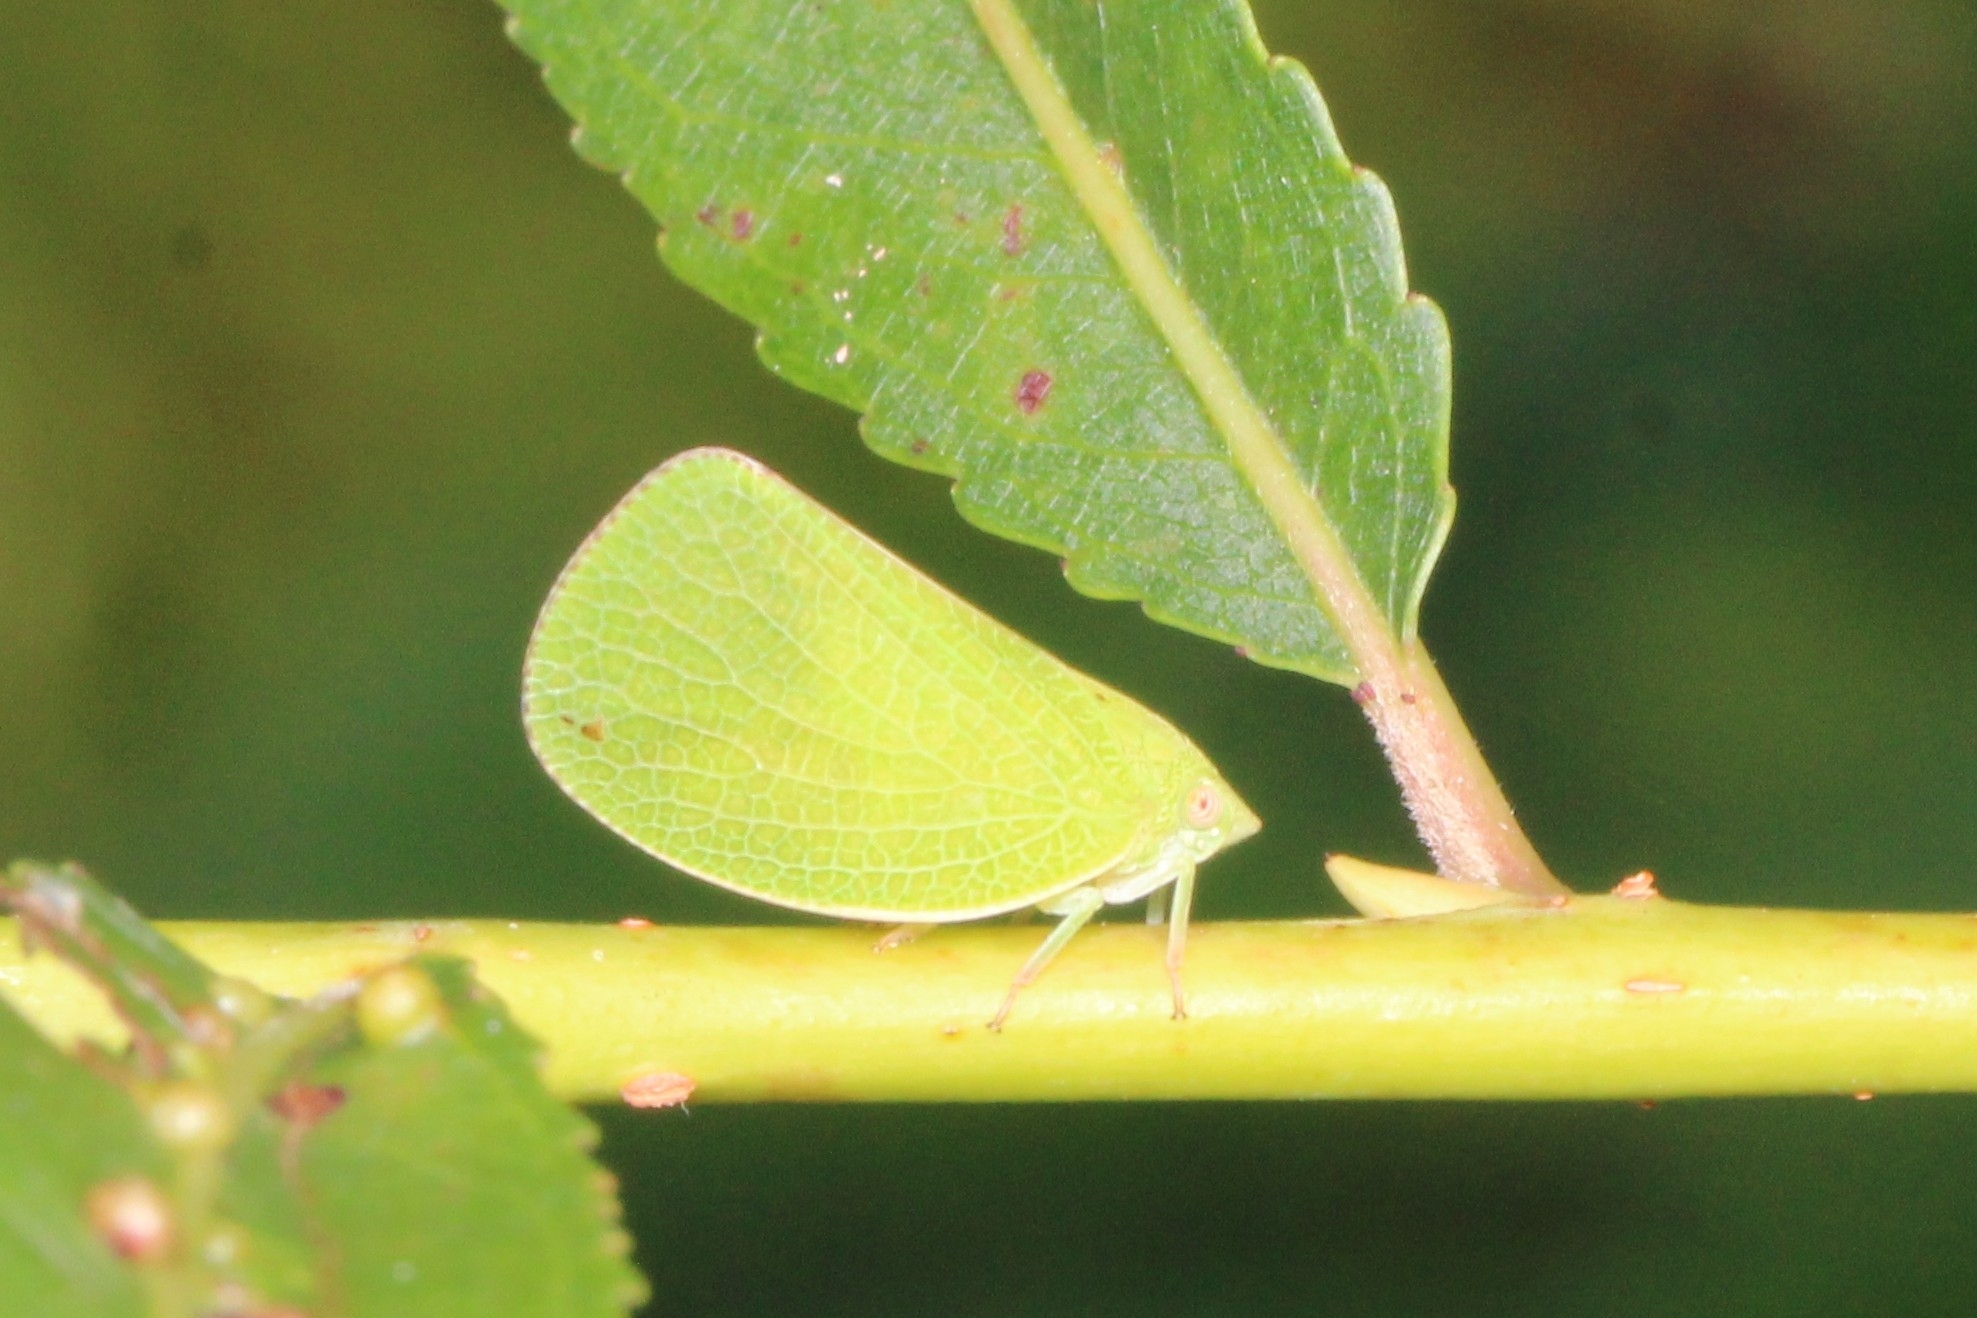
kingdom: Animalia
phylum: Arthropoda
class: Insecta
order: Hemiptera
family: Acanaloniidae
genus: Acanalonia
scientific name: Acanalonia conica
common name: Green cone-headed planthopper
